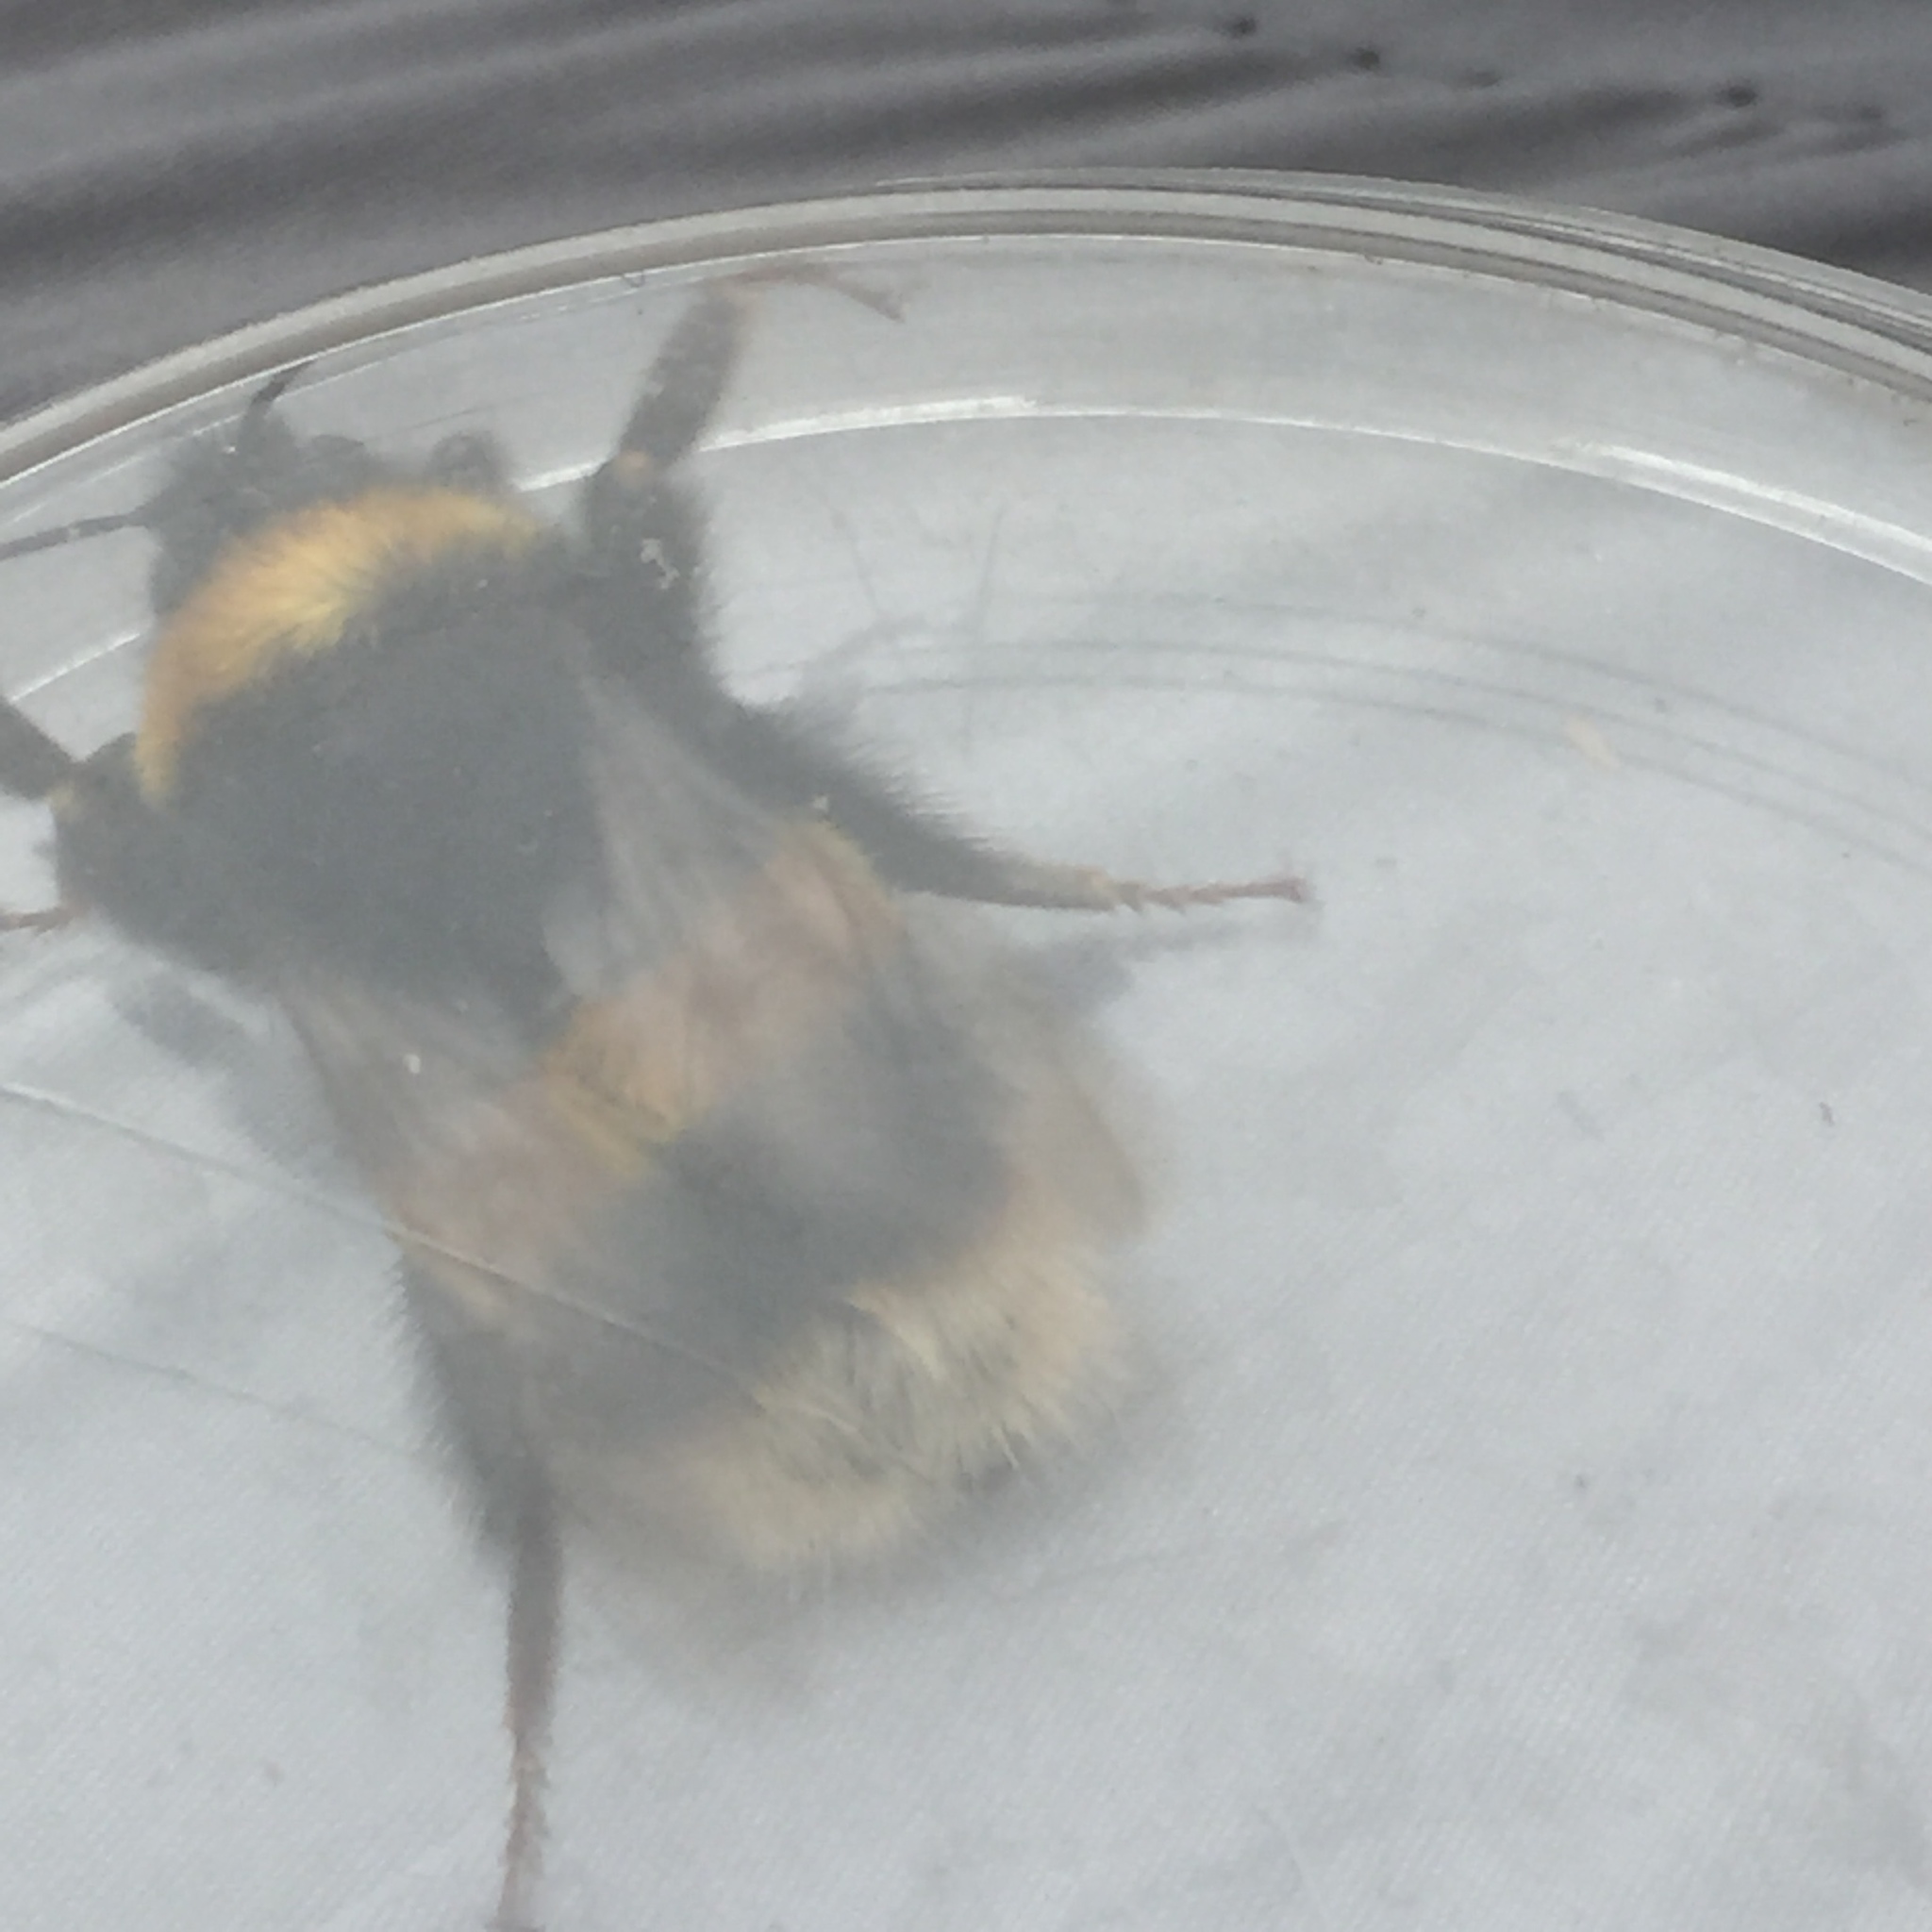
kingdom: Animalia
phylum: Arthropoda
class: Insecta
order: Hymenoptera
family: Apidae
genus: Bombus
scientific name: Bombus terrestris
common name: Buff-tailed bumblebee
